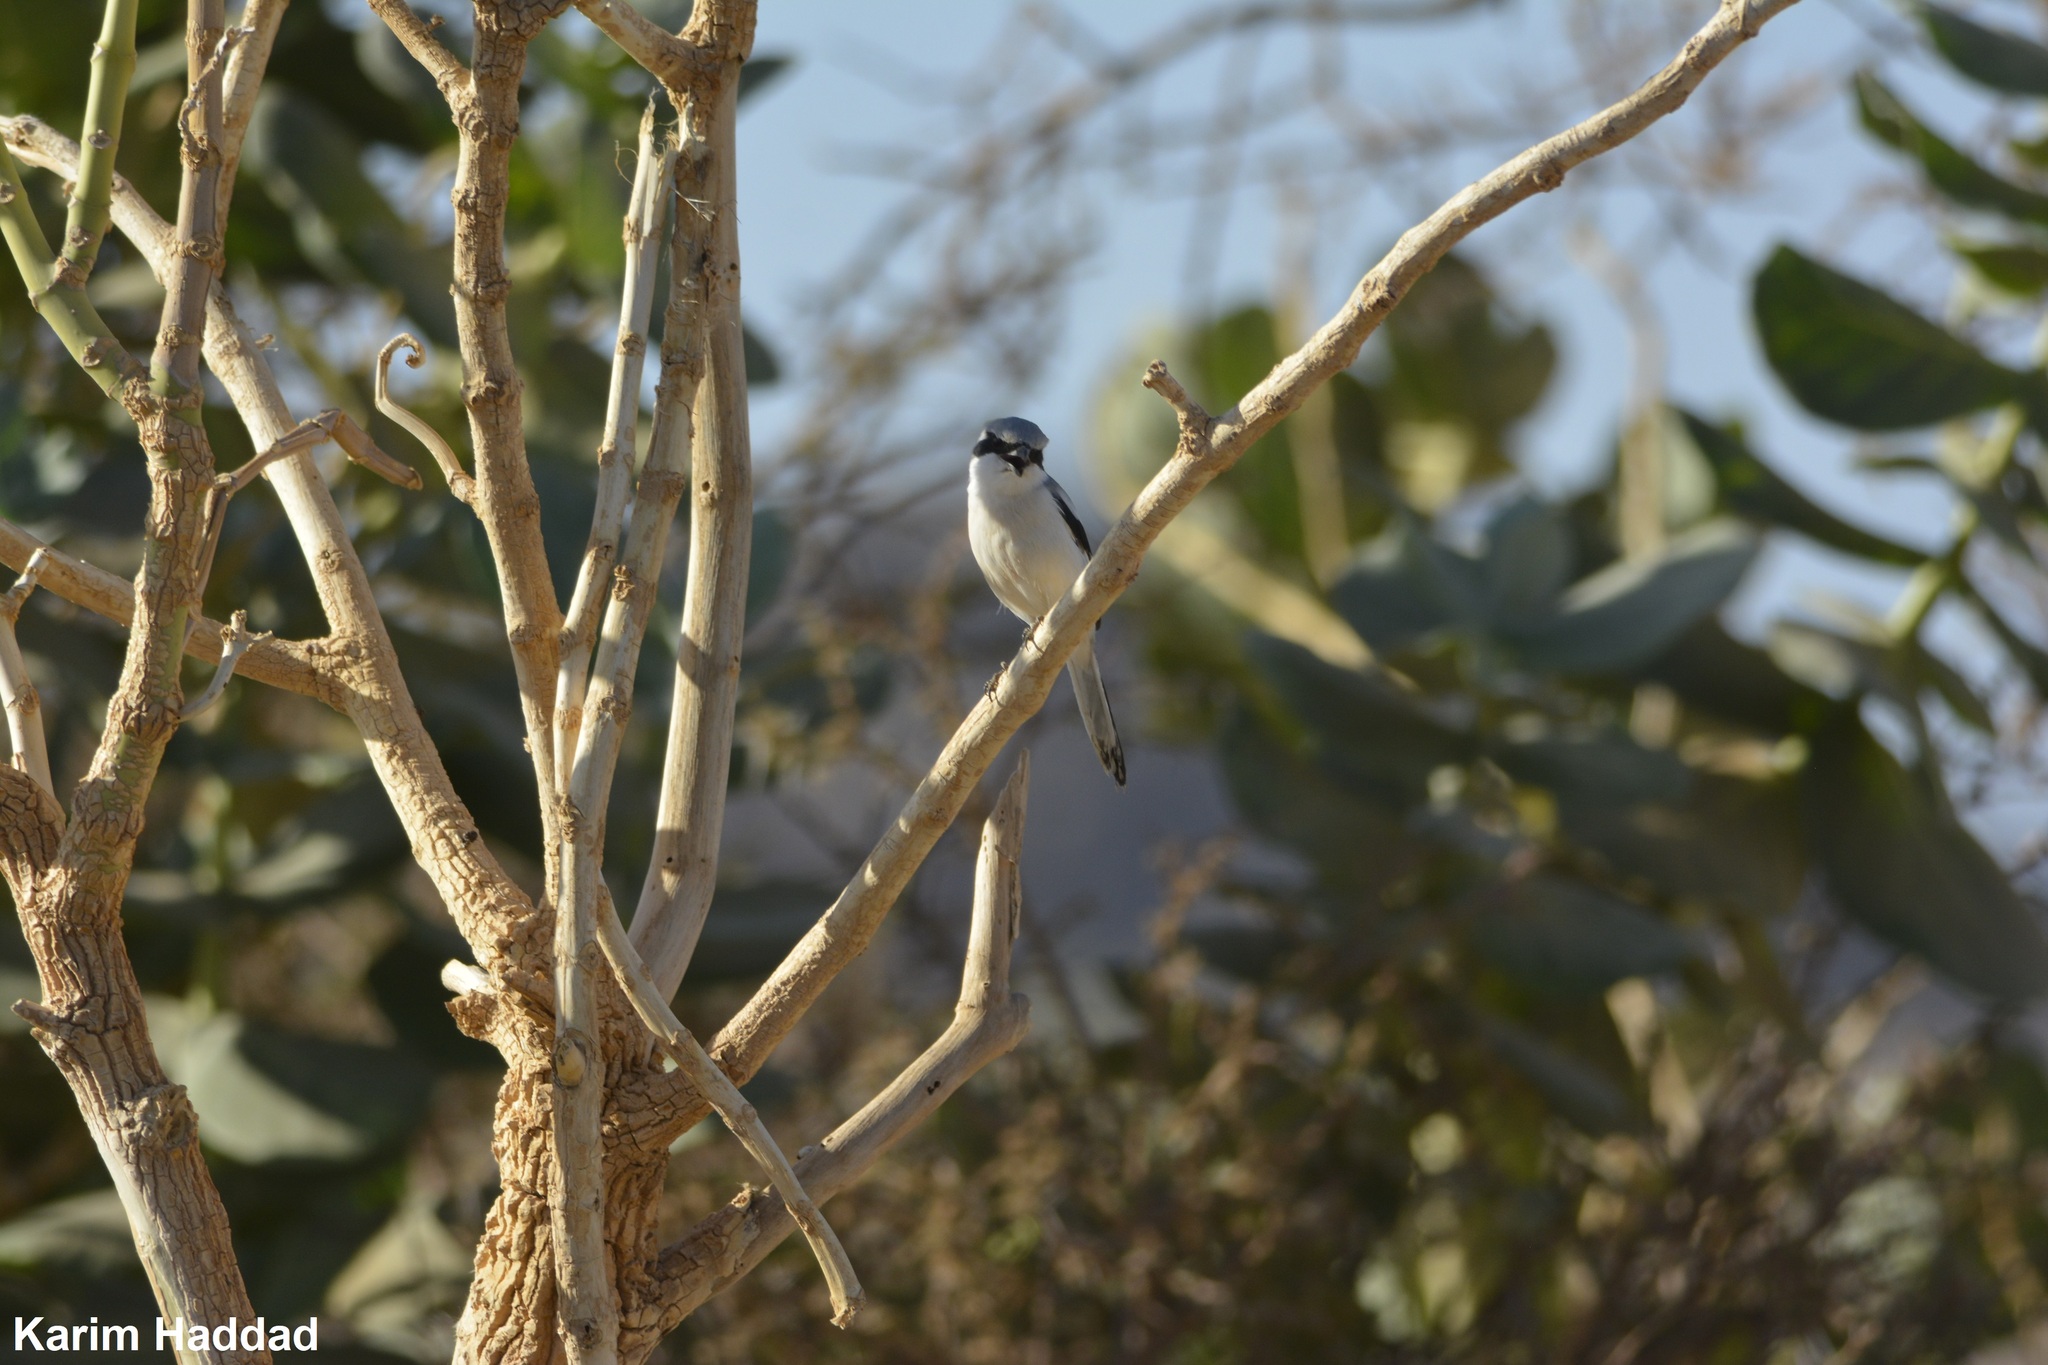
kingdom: Animalia
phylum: Chordata
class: Aves
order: Passeriformes
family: Laniidae
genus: Lanius
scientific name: Lanius excubitor
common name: Great grey shrike
